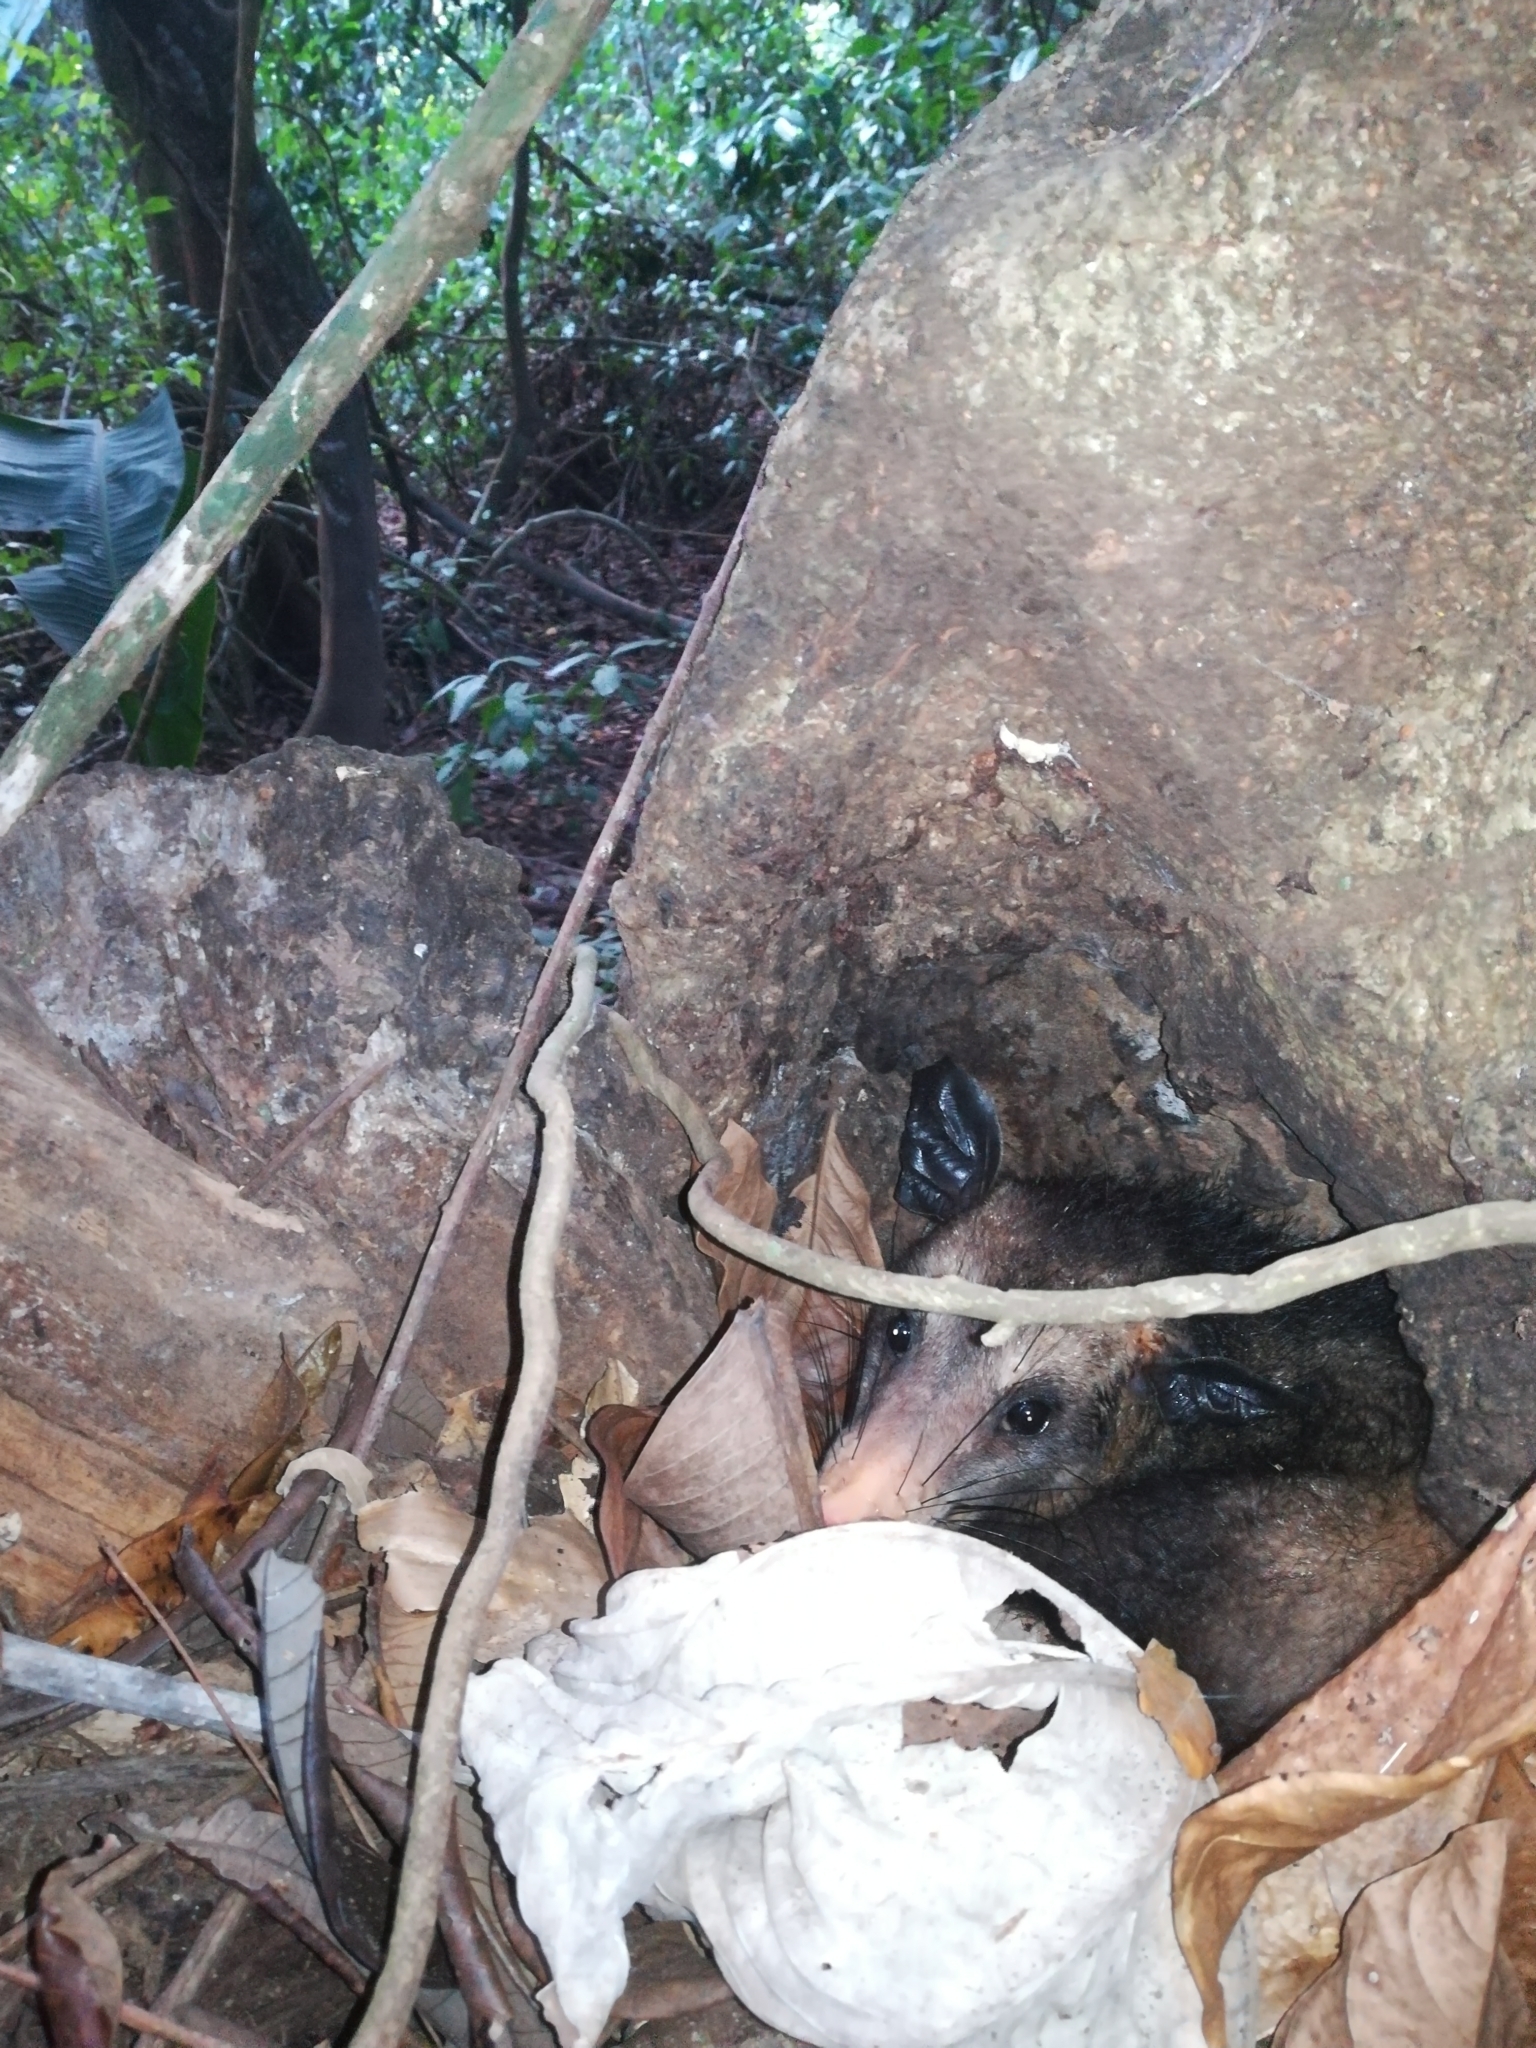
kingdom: Animalia
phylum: Chordata
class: Mammalia
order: Didelphimorphia
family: Didelphidae
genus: Didelphis
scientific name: Didelphis marsupialis
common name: Common opossum
